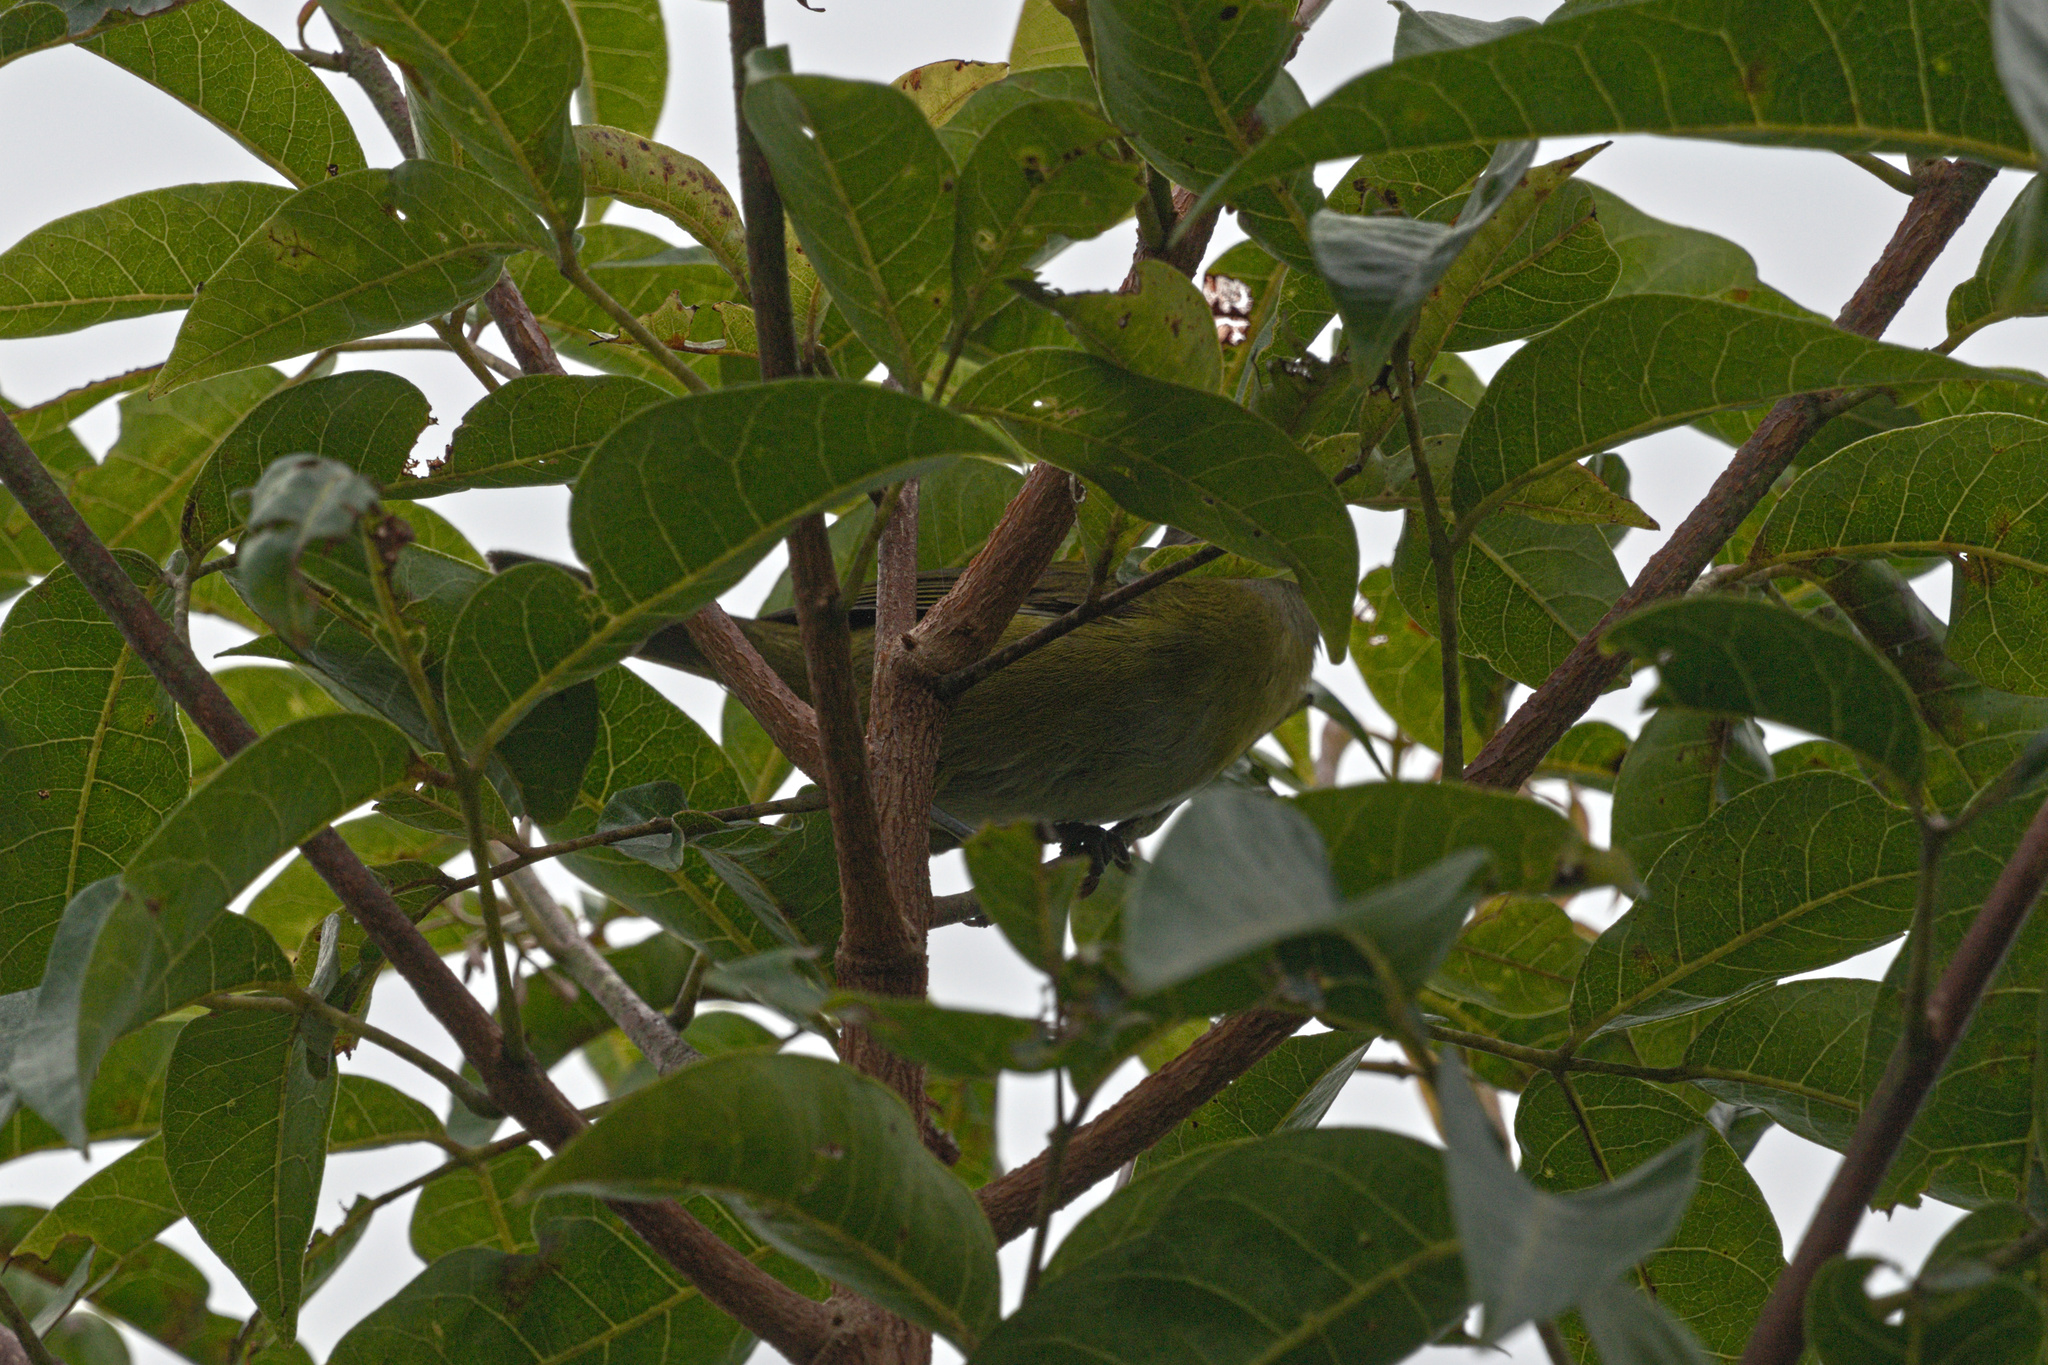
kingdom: Animalia
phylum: Chordata
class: Aves
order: Passeriformes
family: Passerellidae
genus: Chlorospingus
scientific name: Chlorospingus flavopectus
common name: Common chlorospingus
